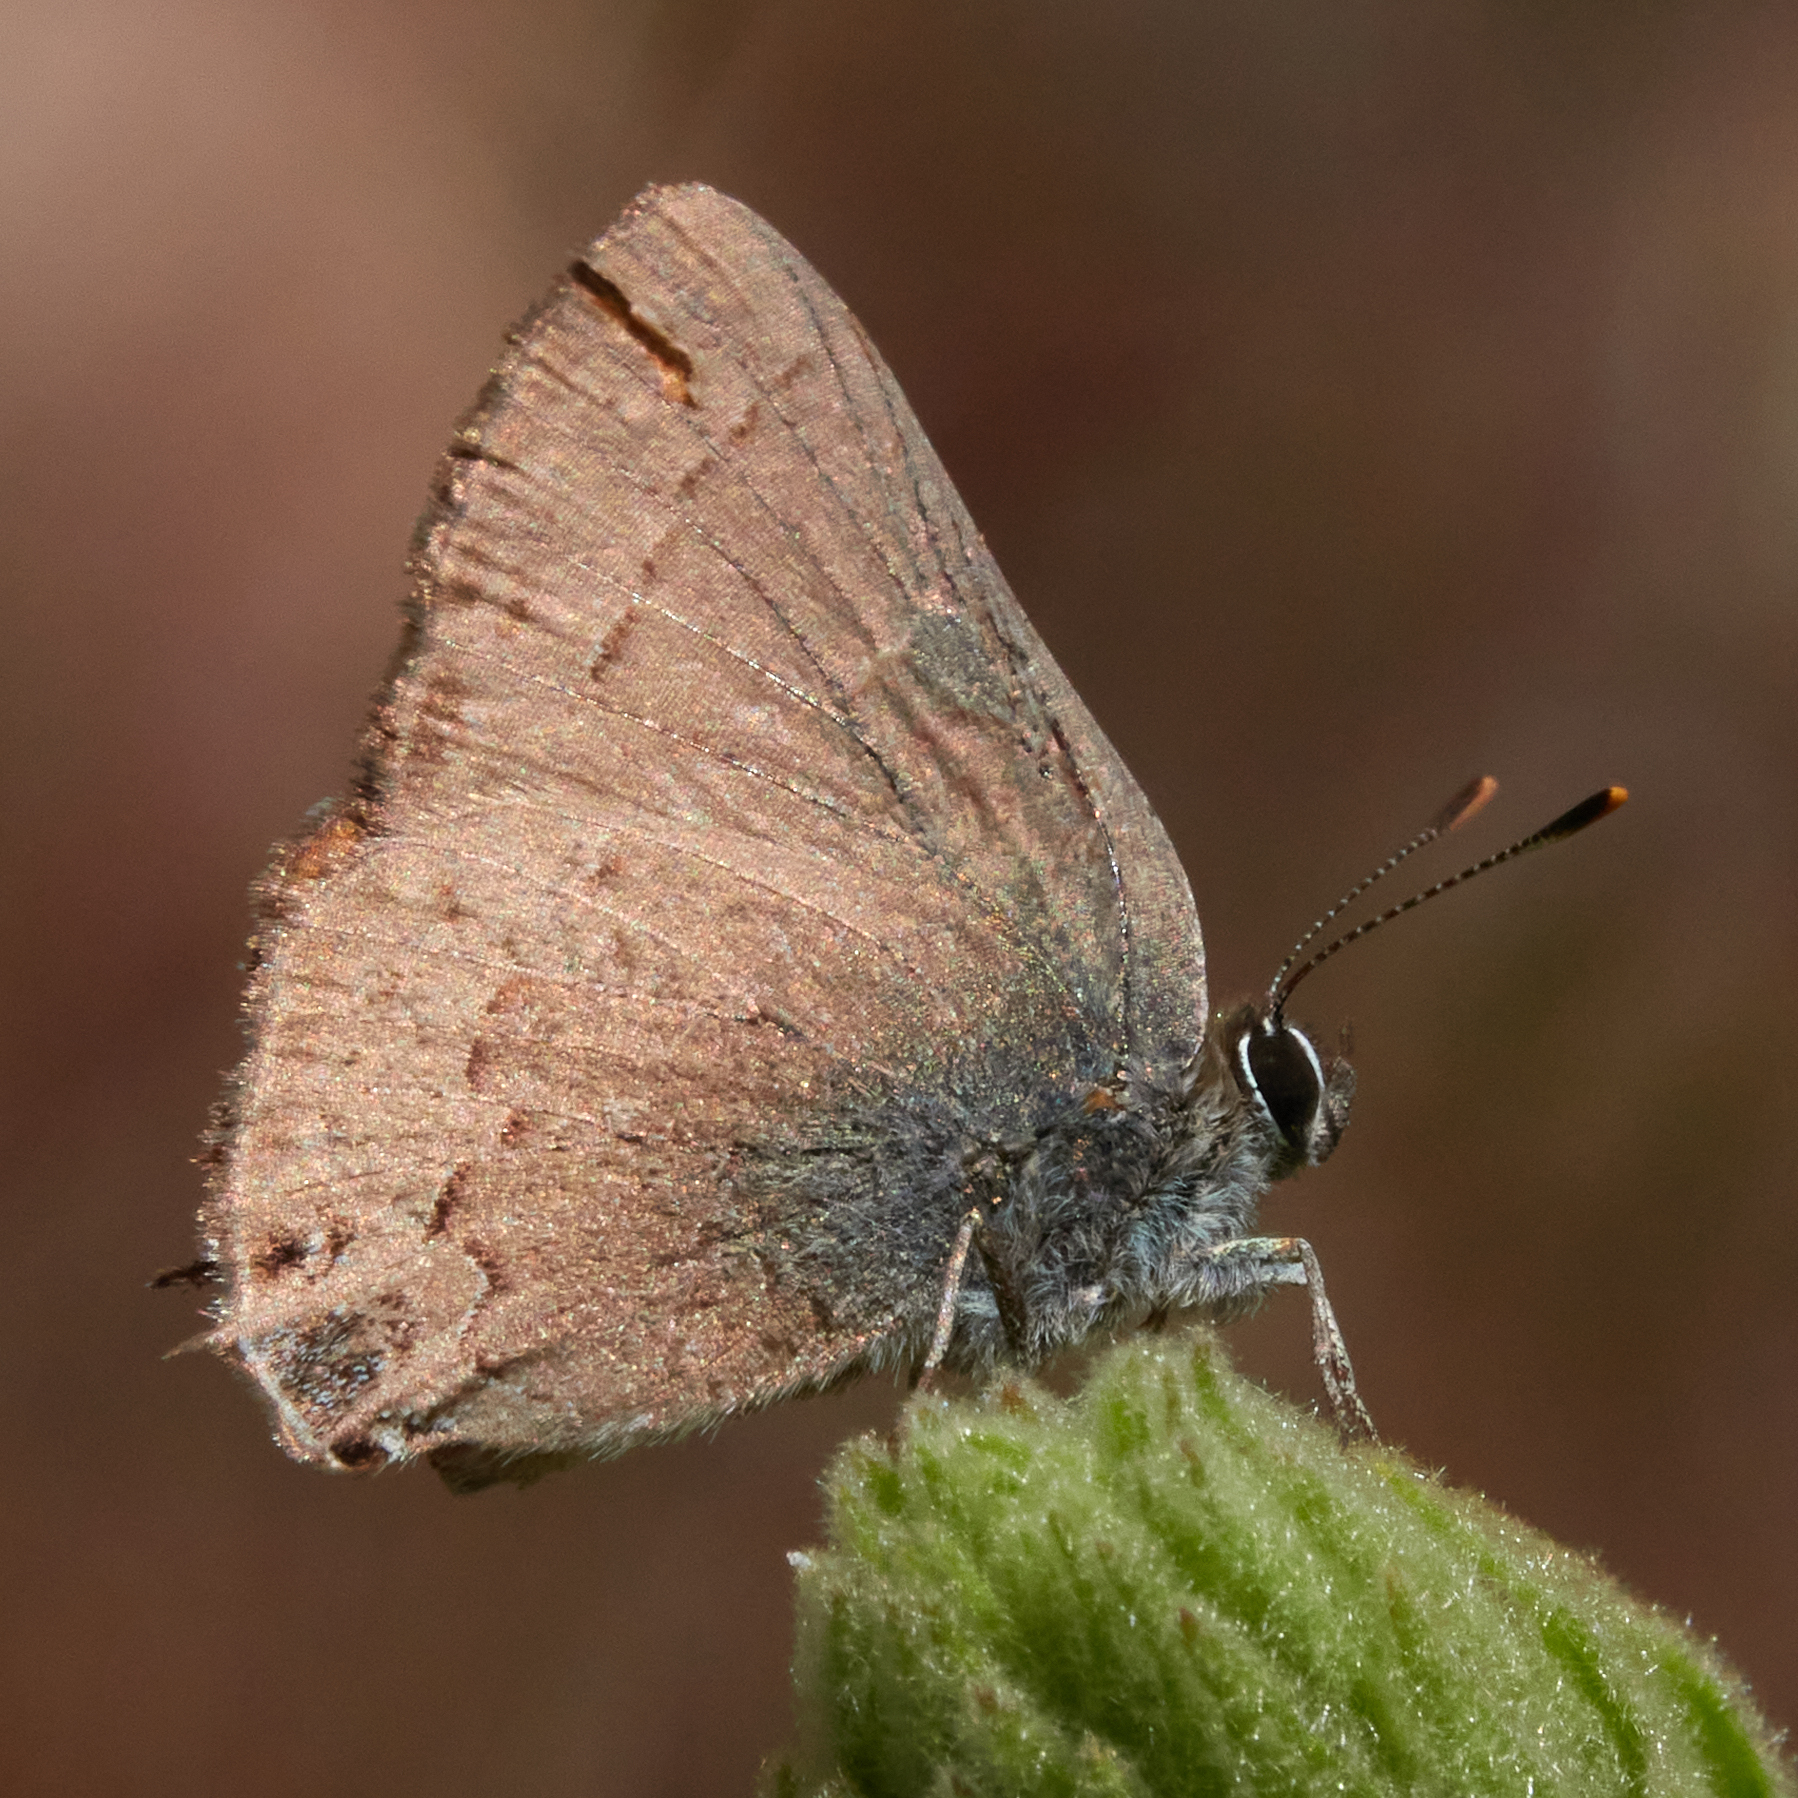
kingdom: Animalia
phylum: Arthropoda
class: Insecta
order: Lepidoptera
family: Lycaenidae
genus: Strymon
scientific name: Strymon saepium
